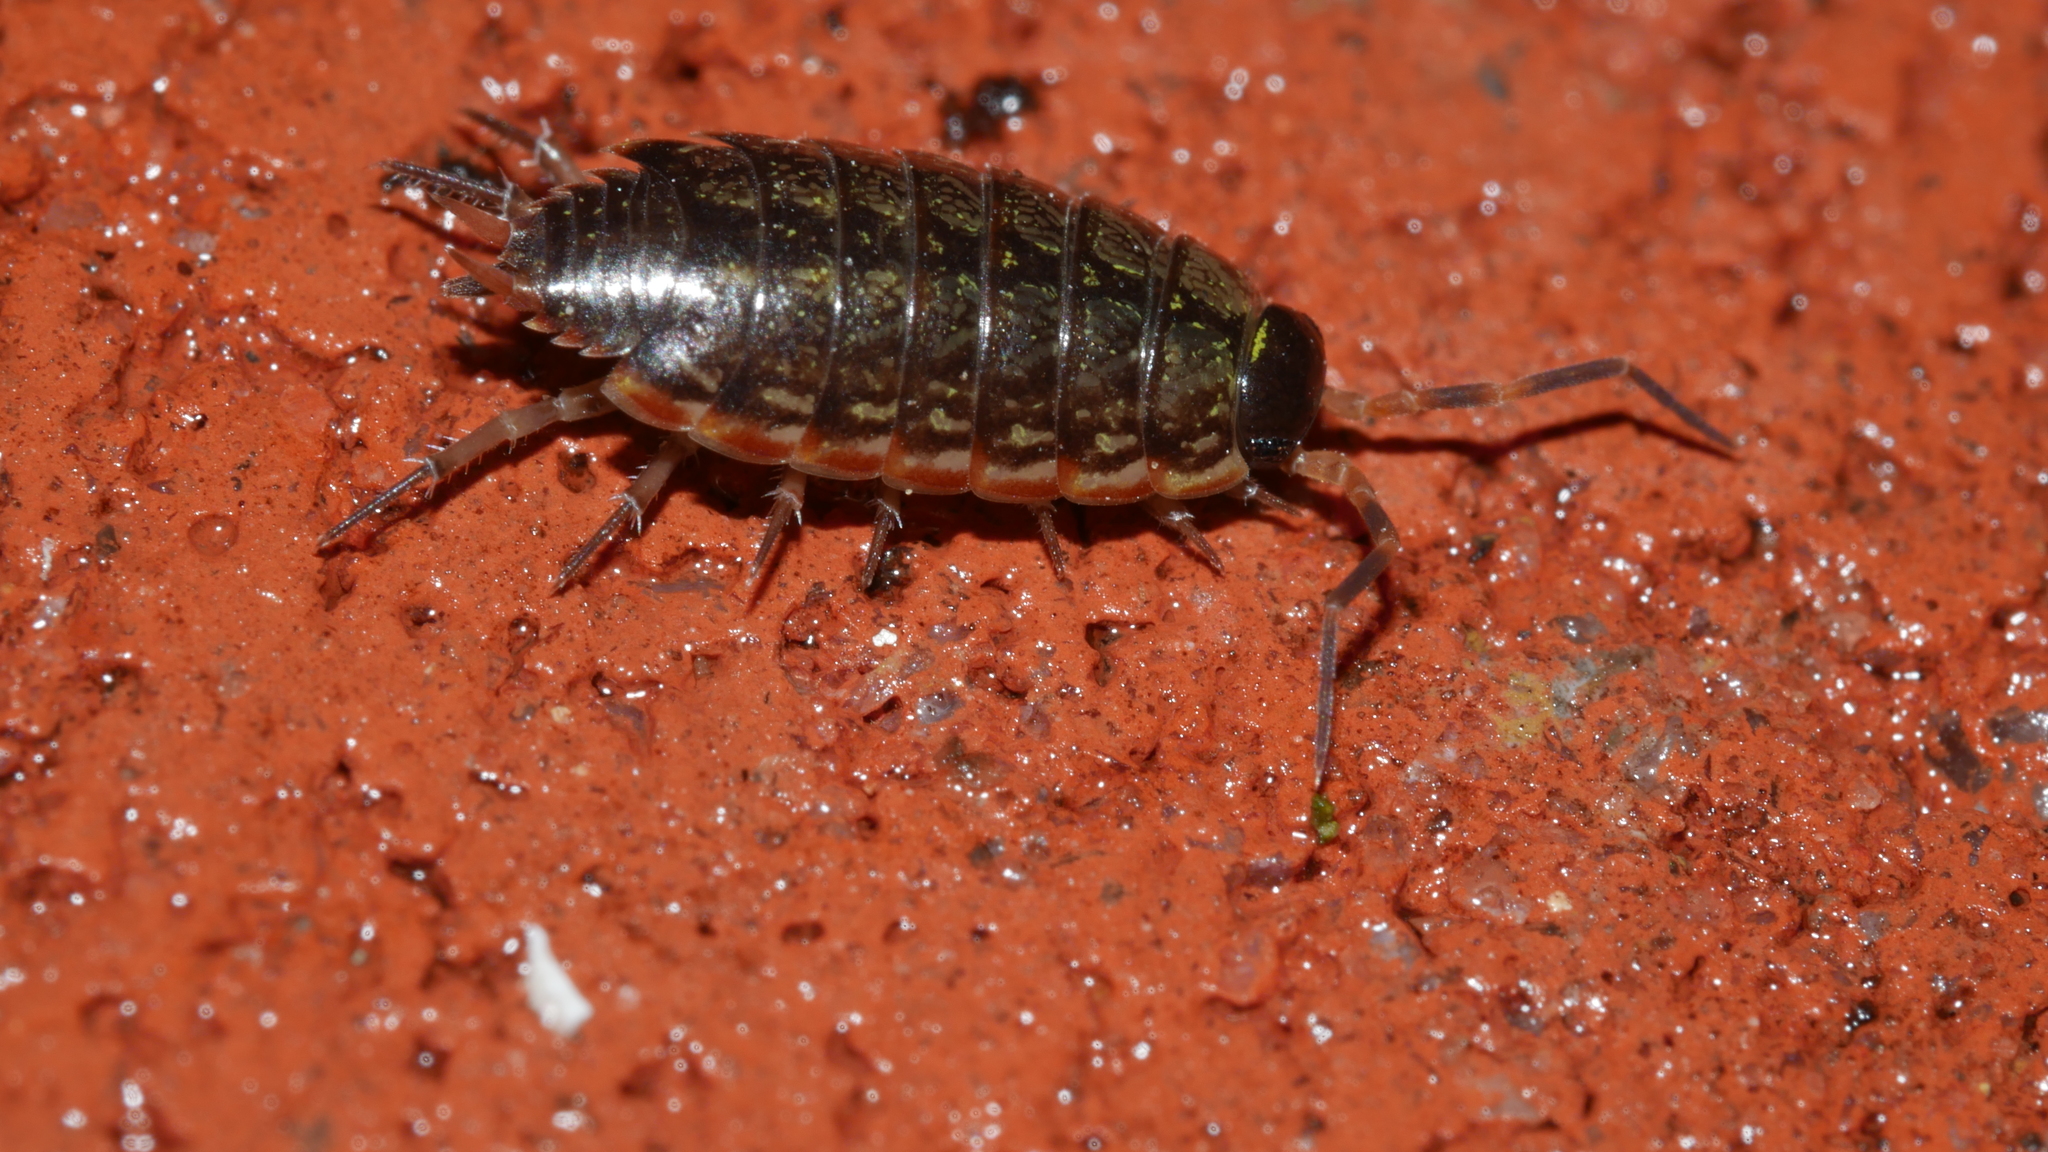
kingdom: Animalia
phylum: Arthropoda
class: Malacostraca
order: Isopoda
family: Philosciidae
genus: Philoscia
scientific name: Philoscia muscorum
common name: Common striped woodlouse
